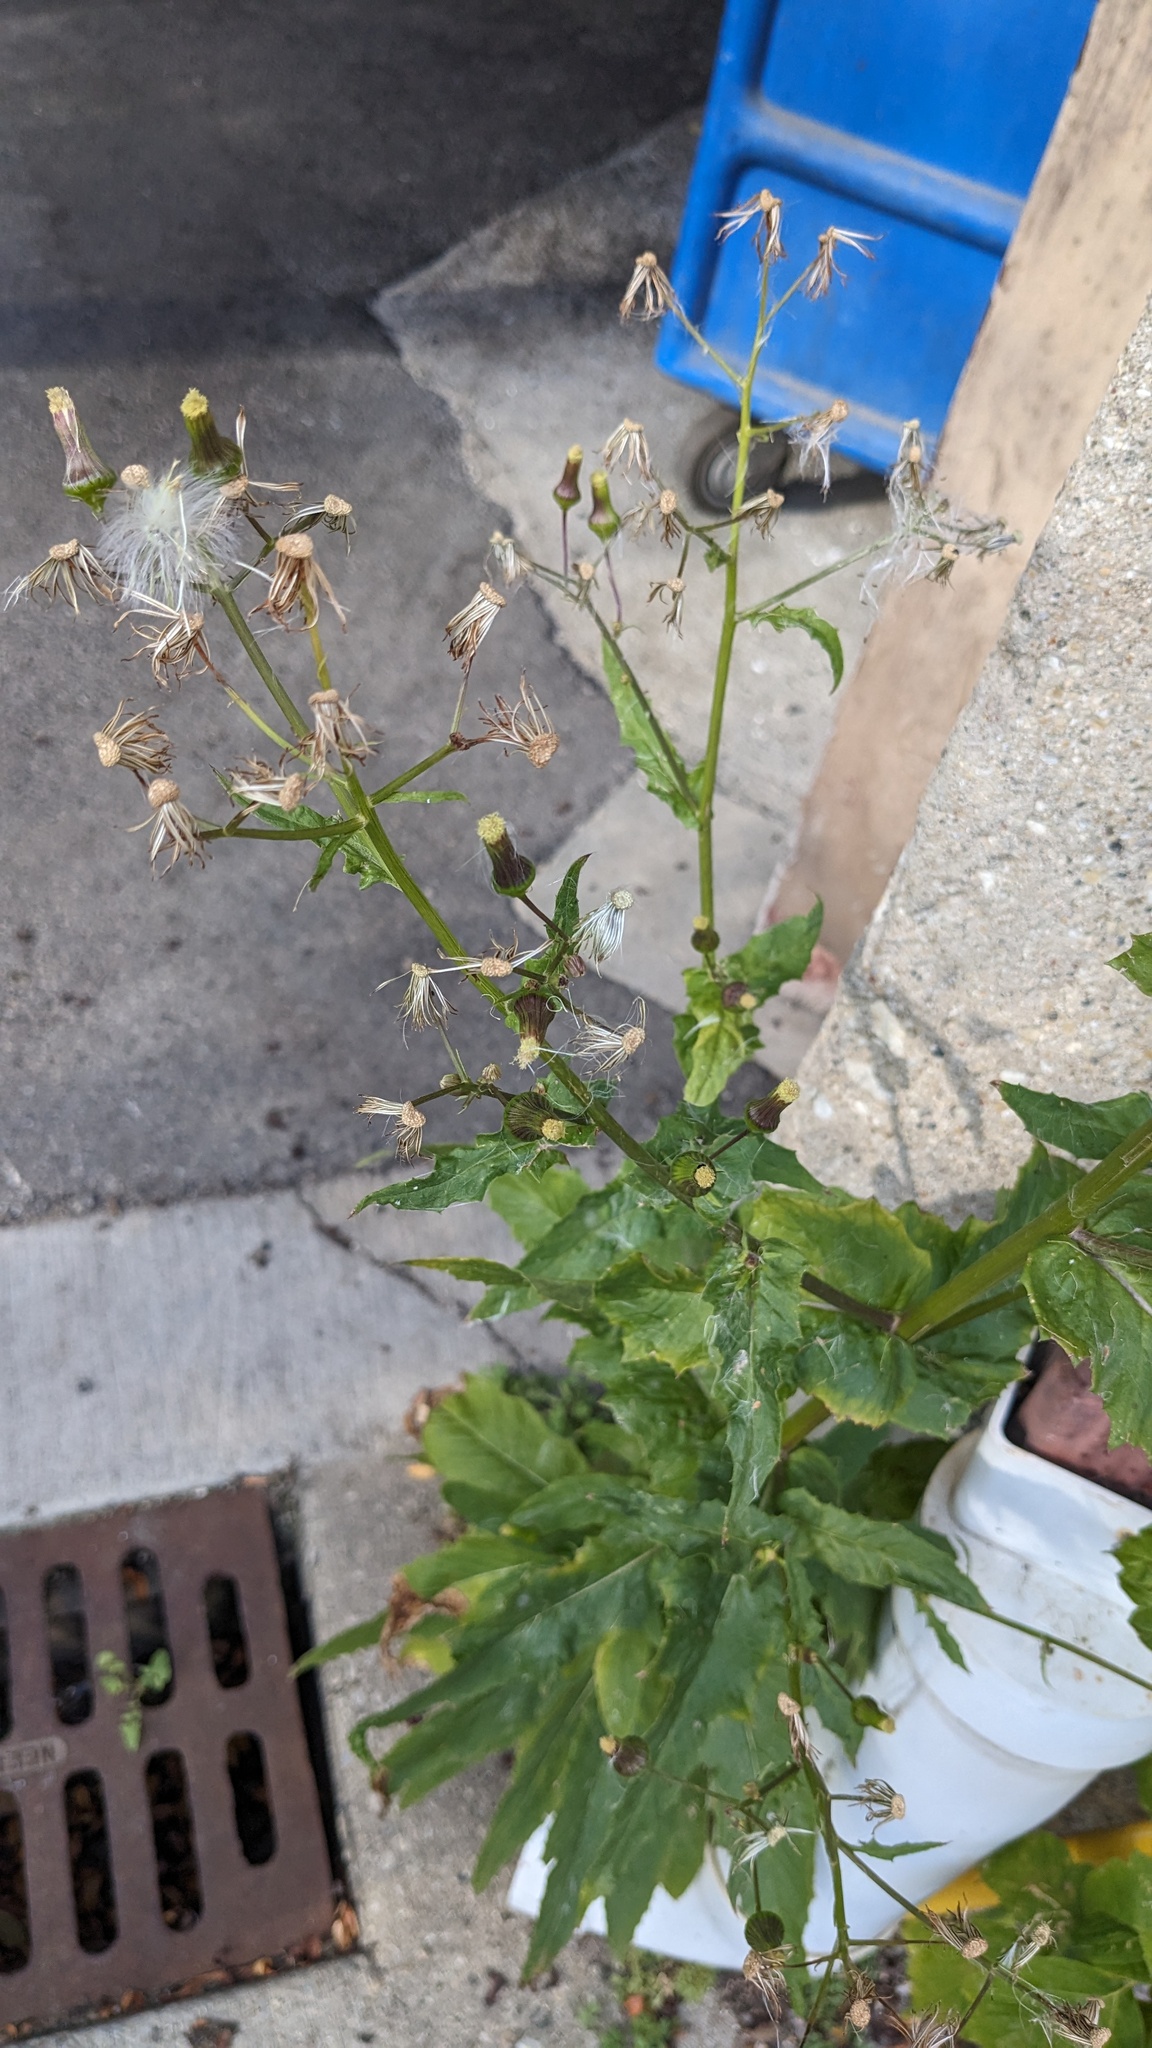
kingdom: Plantae
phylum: Tracheophyta
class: Magnoliopsida
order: Asterales
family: Asteraceae
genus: Erechtites
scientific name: Erechtites hieraciifolius
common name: American burnweed
